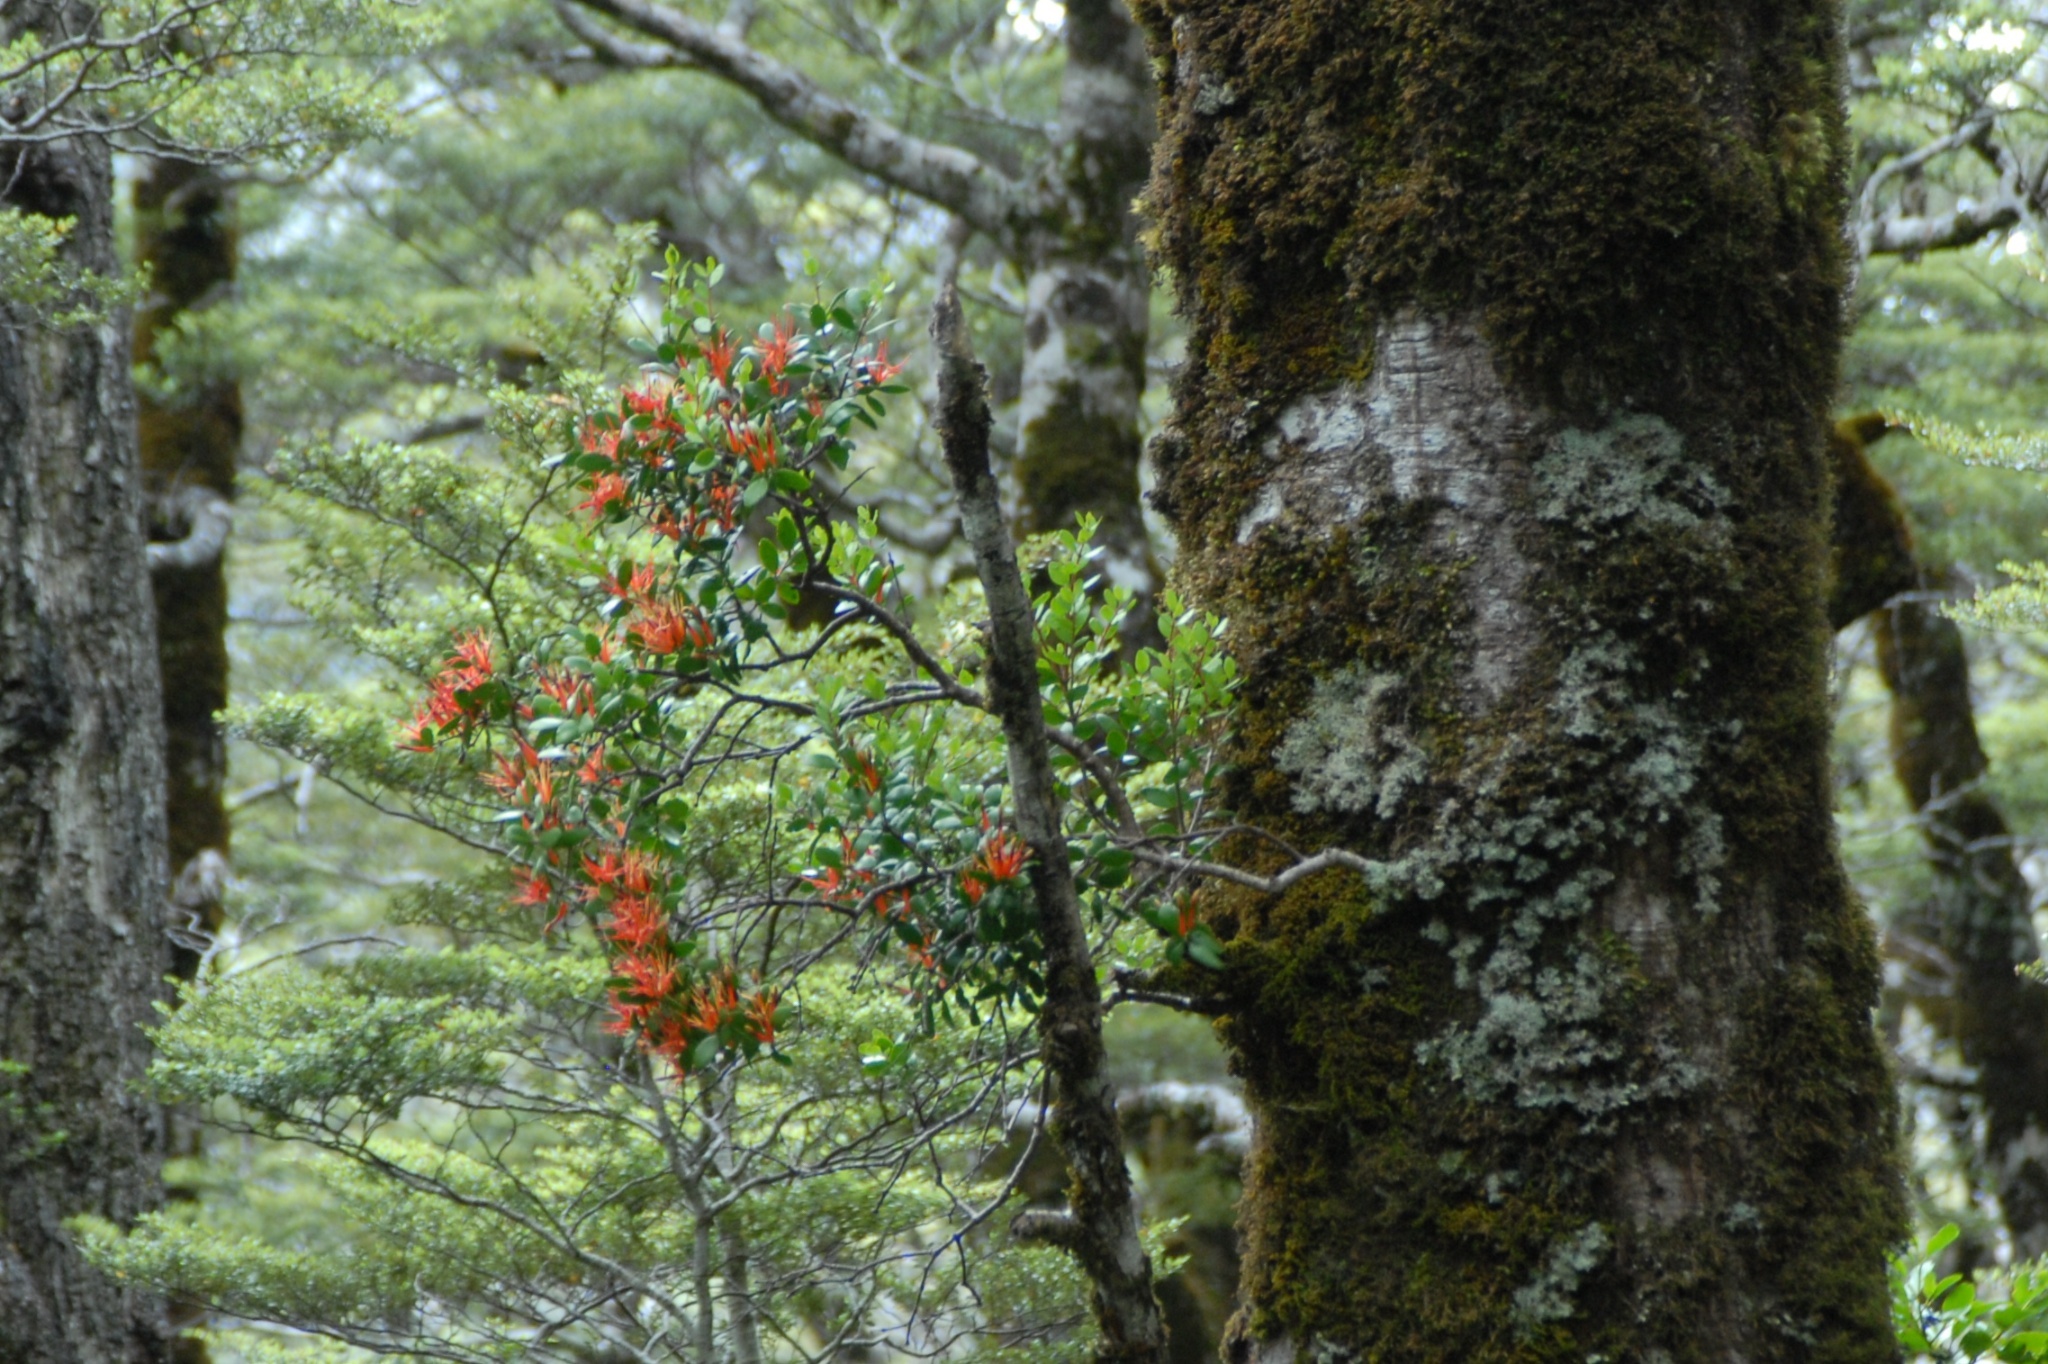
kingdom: Plantae
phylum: Tracheophyta
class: Magnoliopsida
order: Santalales
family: Loranthaceae
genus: Peraxilla
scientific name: Peraxilla tetrapetala
